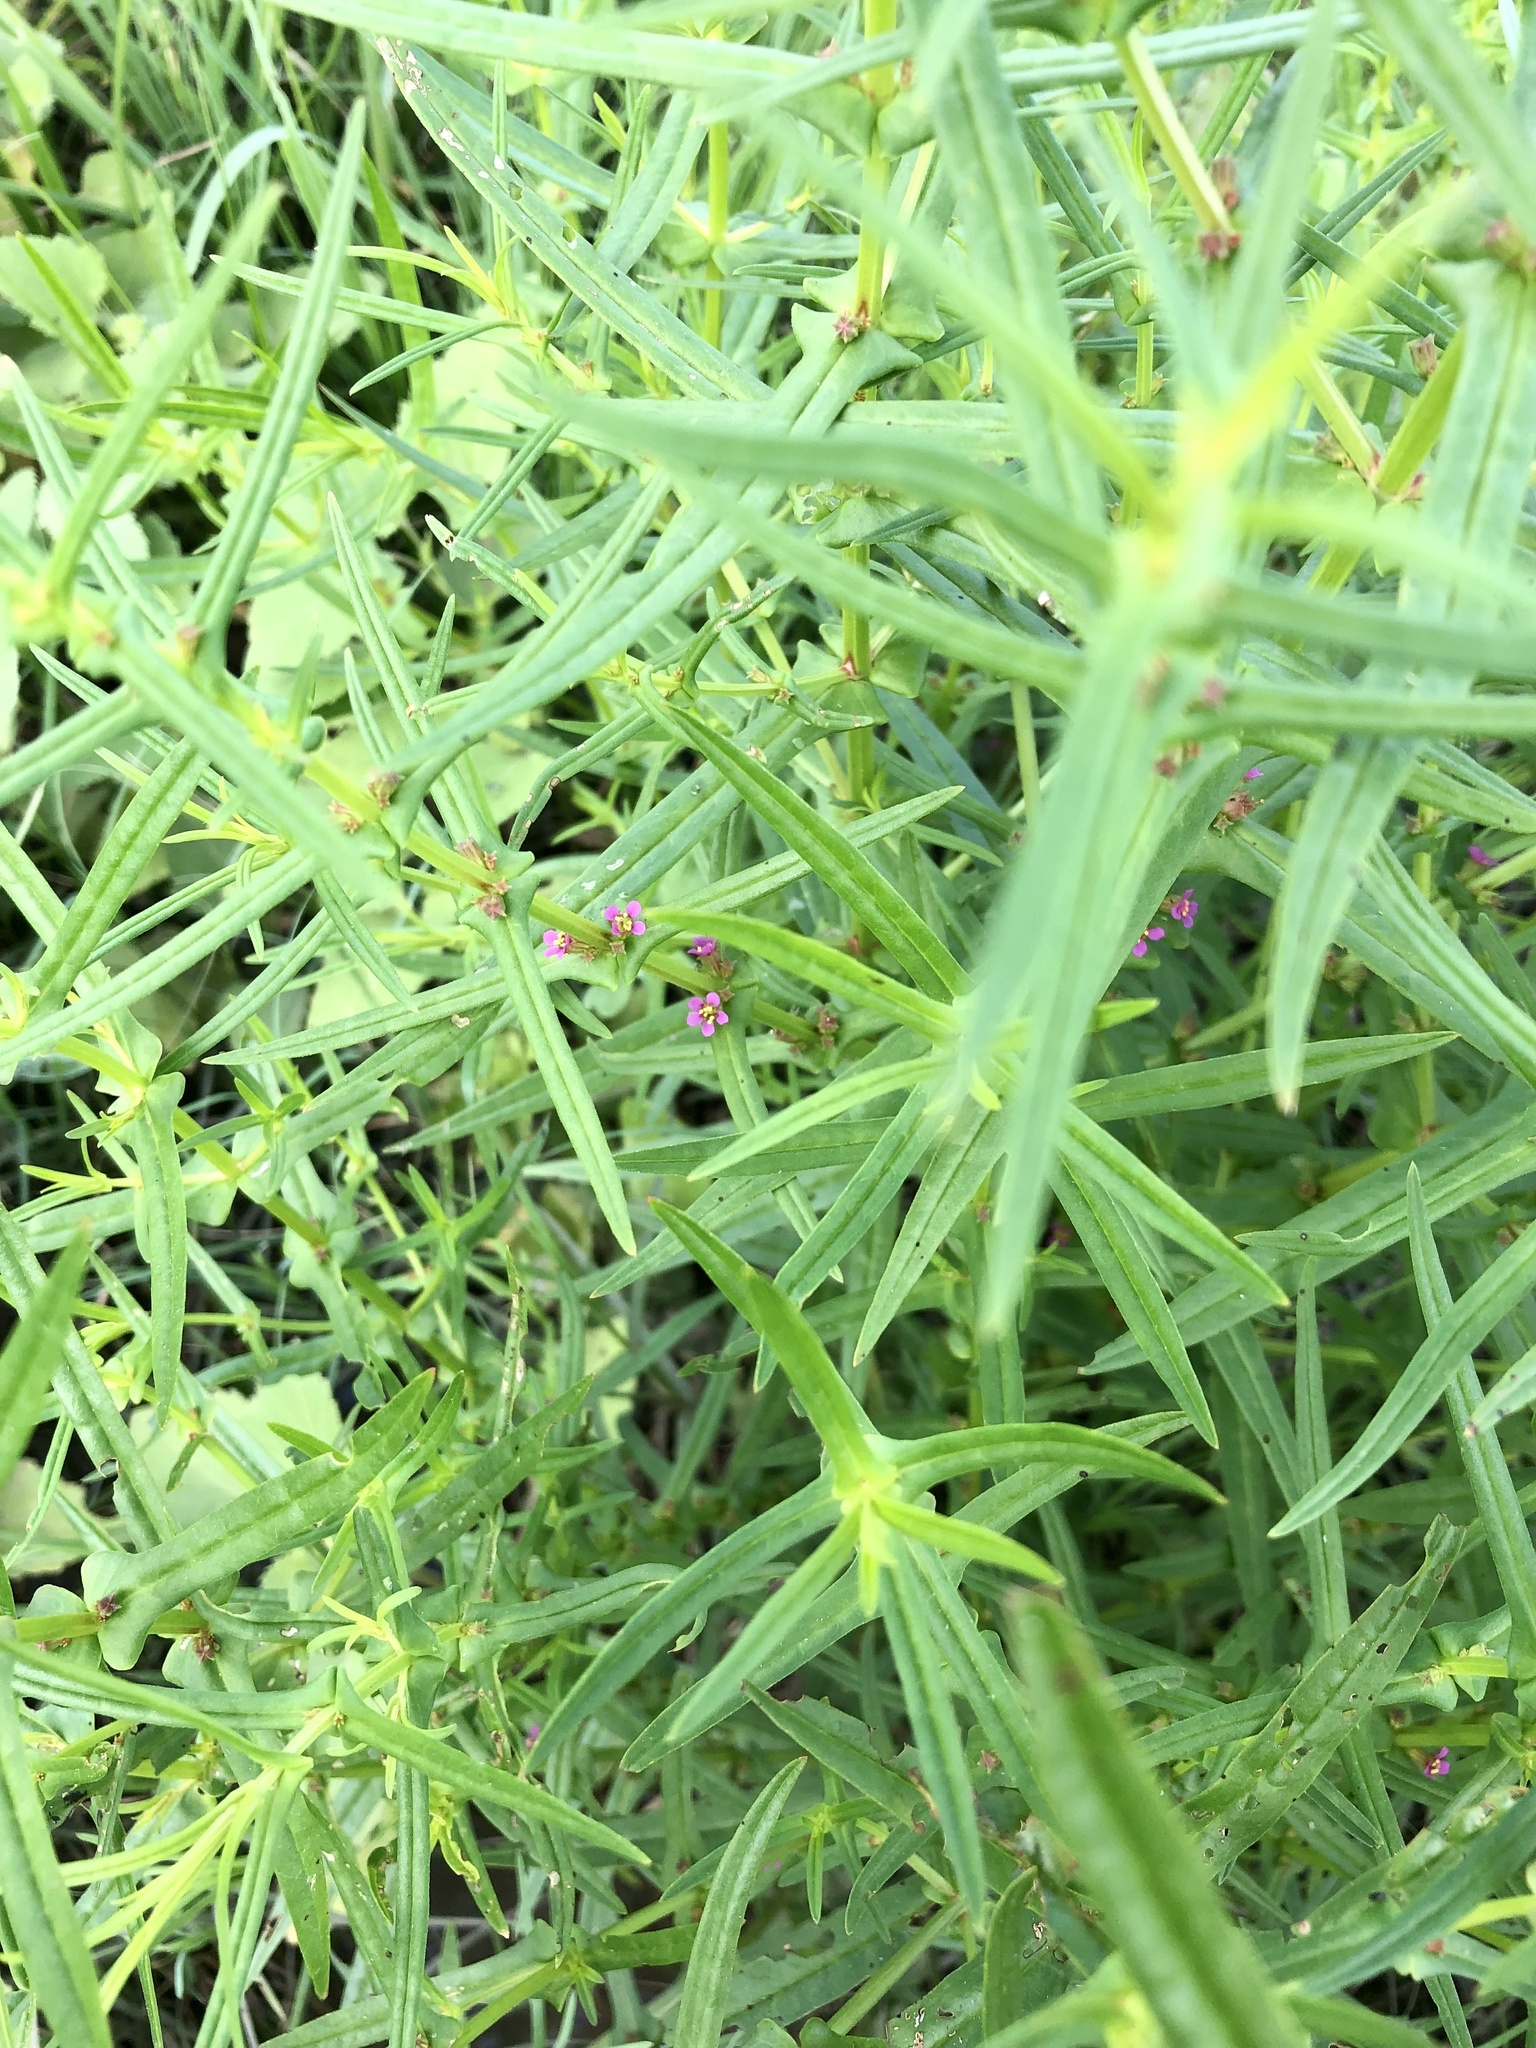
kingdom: Plantae
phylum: Tracheophyta
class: Magnoliopsida
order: Myrtales
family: Lythraceae
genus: Ammannia
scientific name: Ammannia coccinea
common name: Valley redstem
